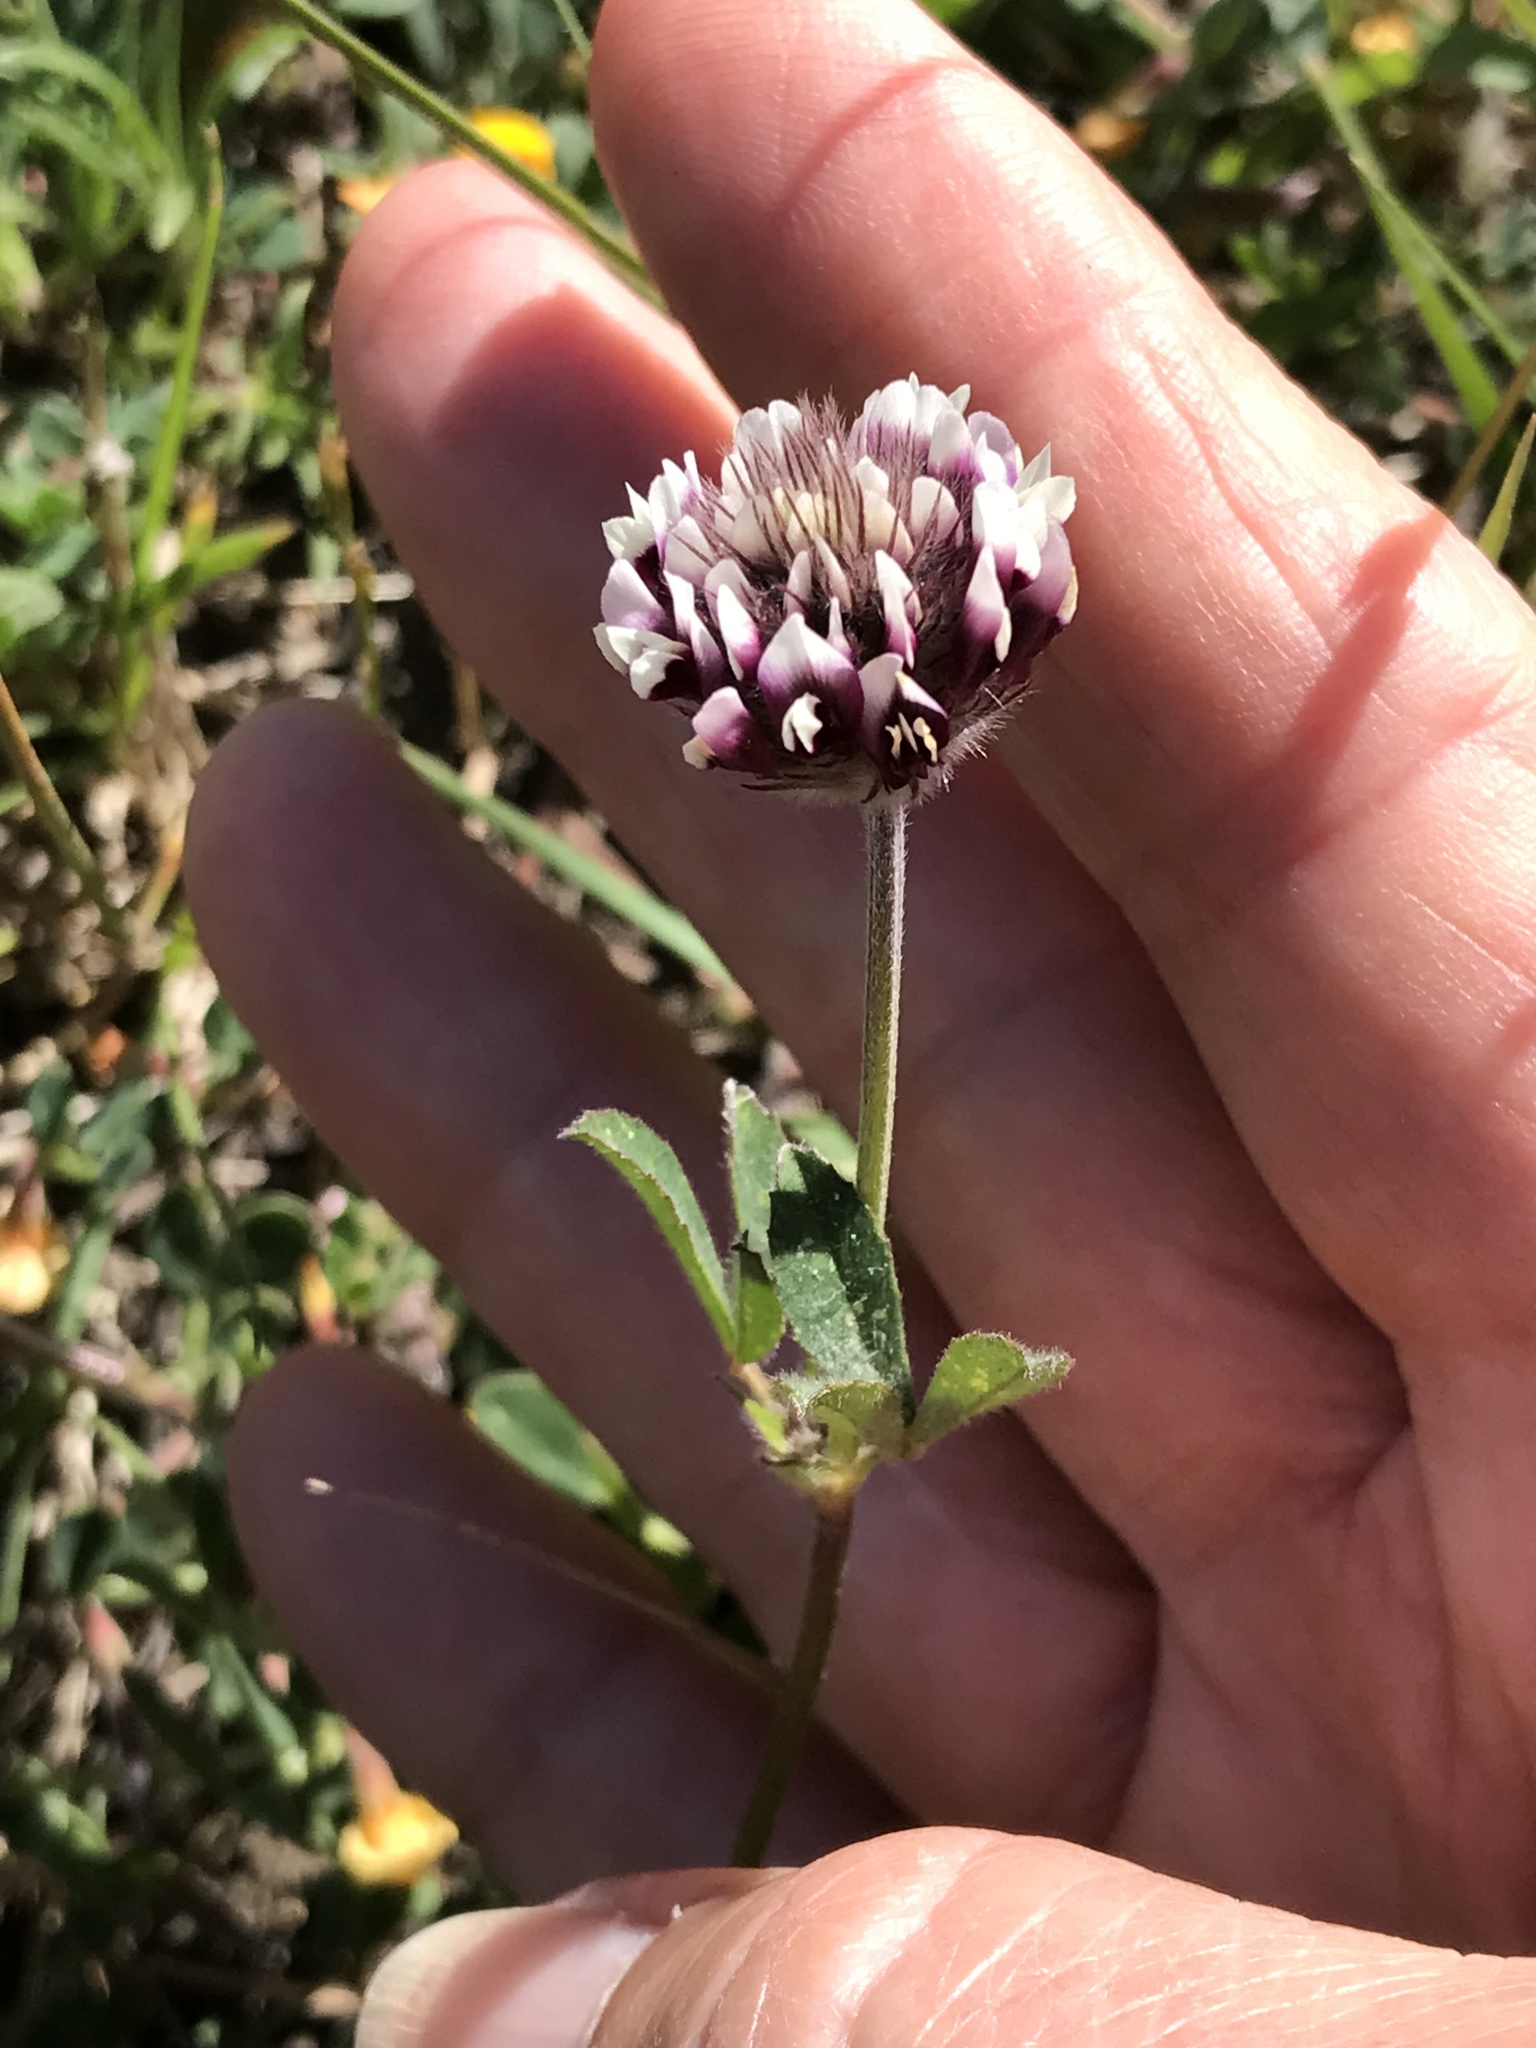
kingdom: Plantae
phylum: Tracheophyta
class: Magnoliopsida
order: Fabales
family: Fabaceae
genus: Trifolium
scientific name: Trifolium dichotomum
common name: Branched indian clover
